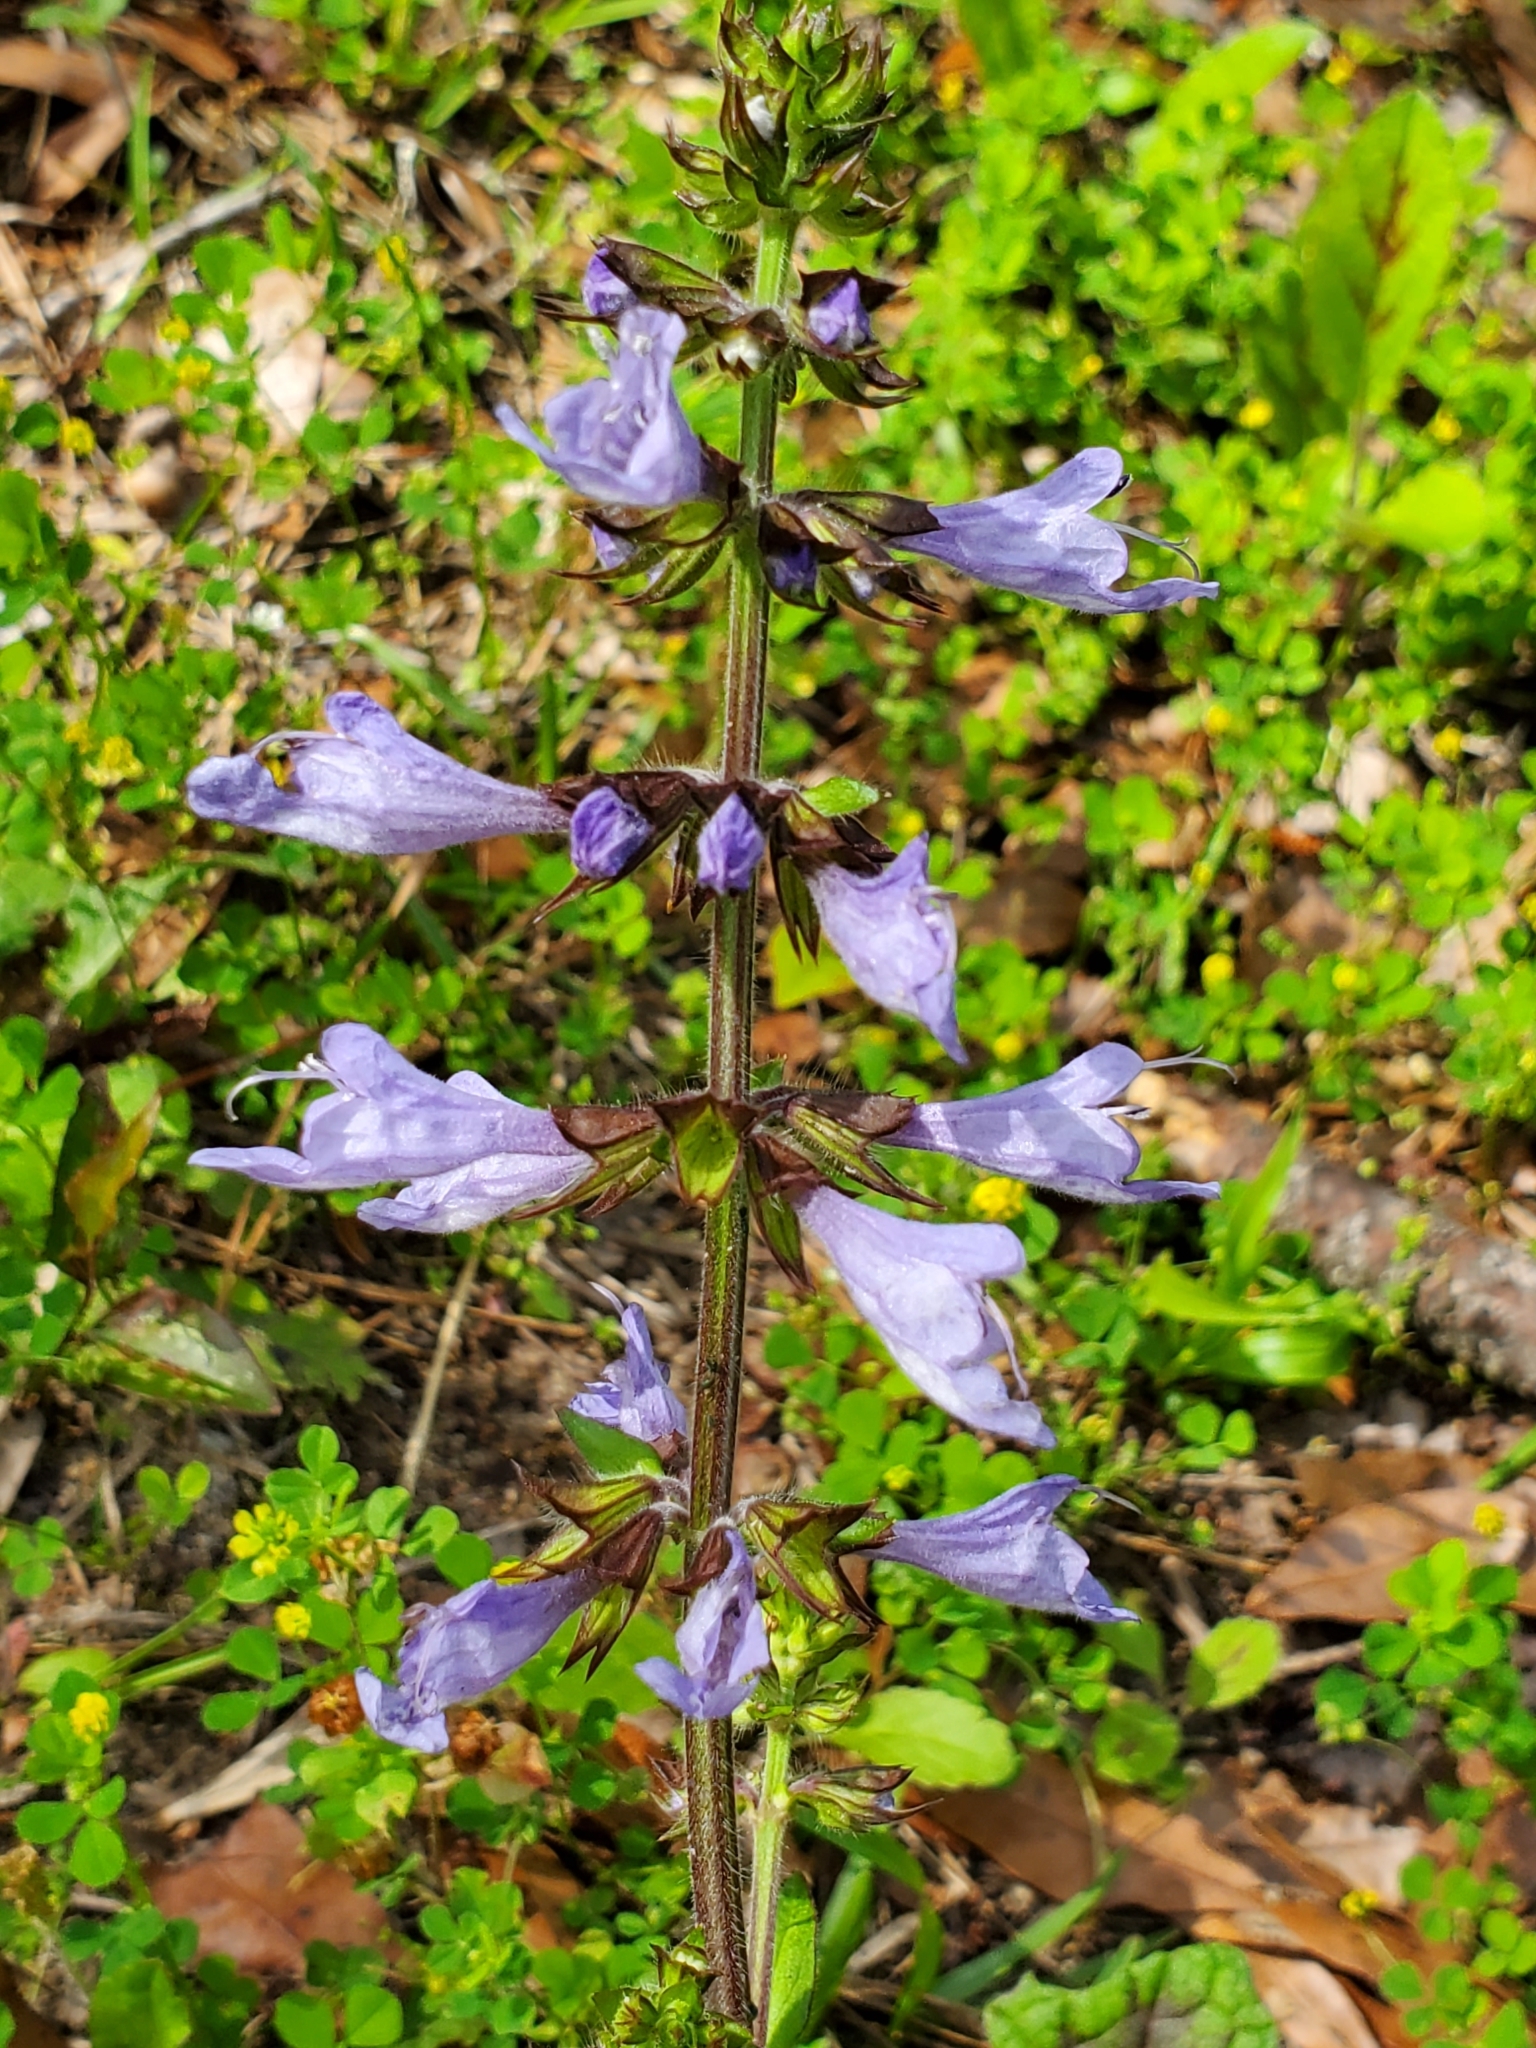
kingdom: Plantae
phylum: Tracheophyta
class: Magnoliopsida
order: Lamiales
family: Lamiaceae
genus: Salvia
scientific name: Salvia lyrata
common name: Cancerweed
